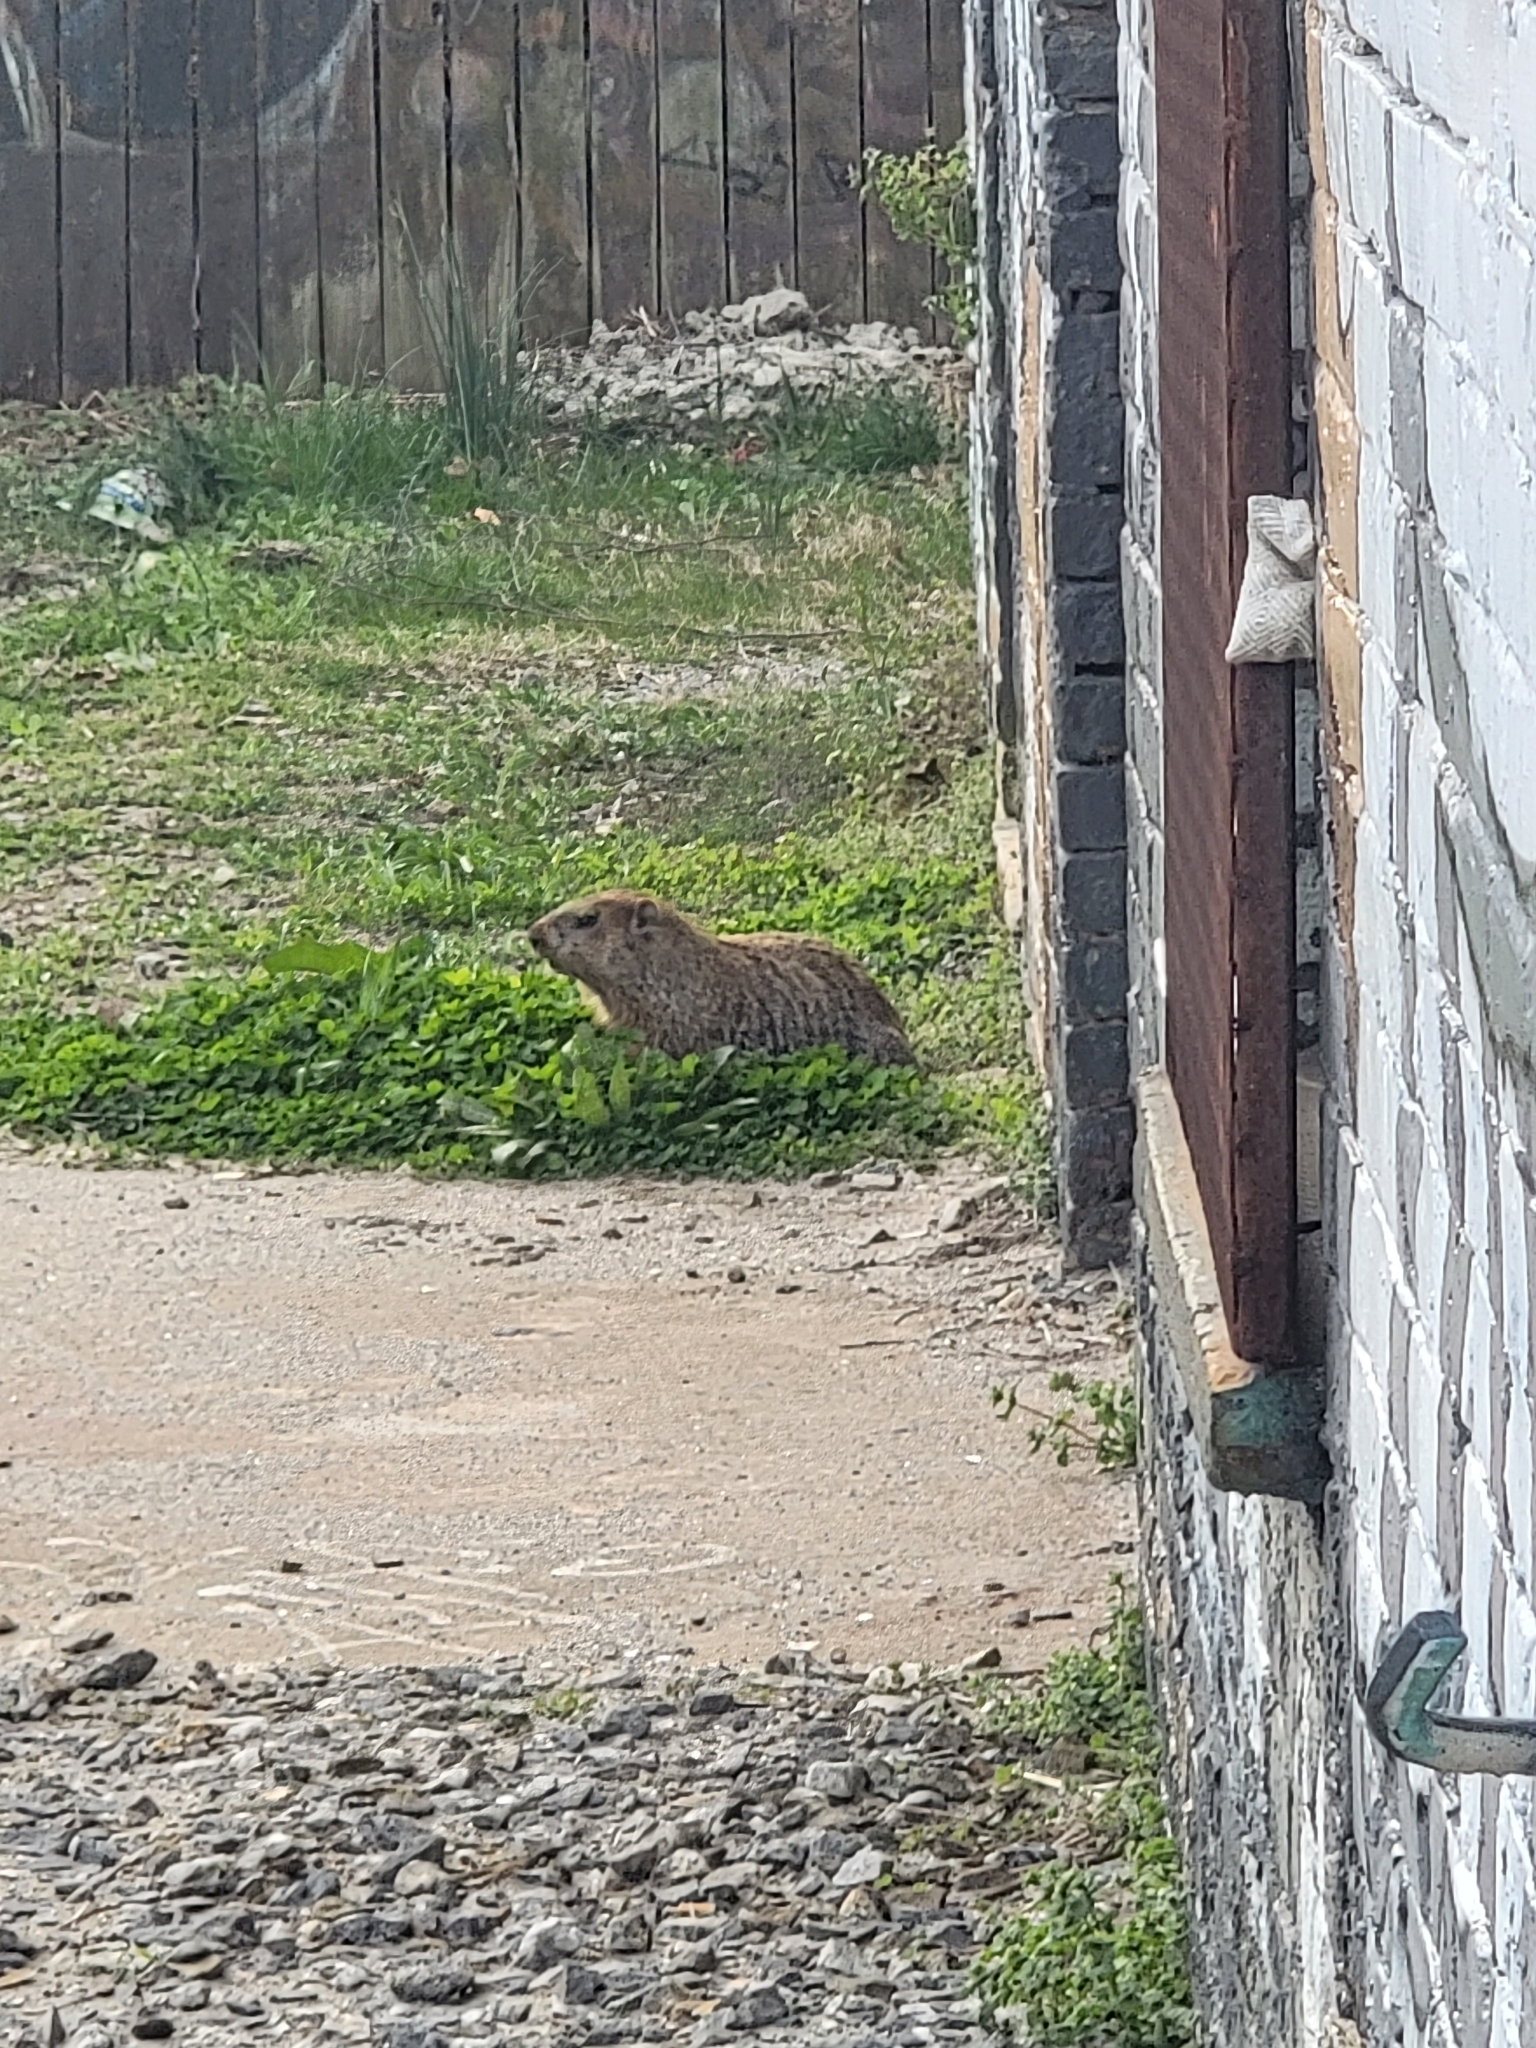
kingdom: Animalia
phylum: Chordata
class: Mammalia
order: Rodentia
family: Sciuridae
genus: Marmota
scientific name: Marmota monax
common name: Groundhog
